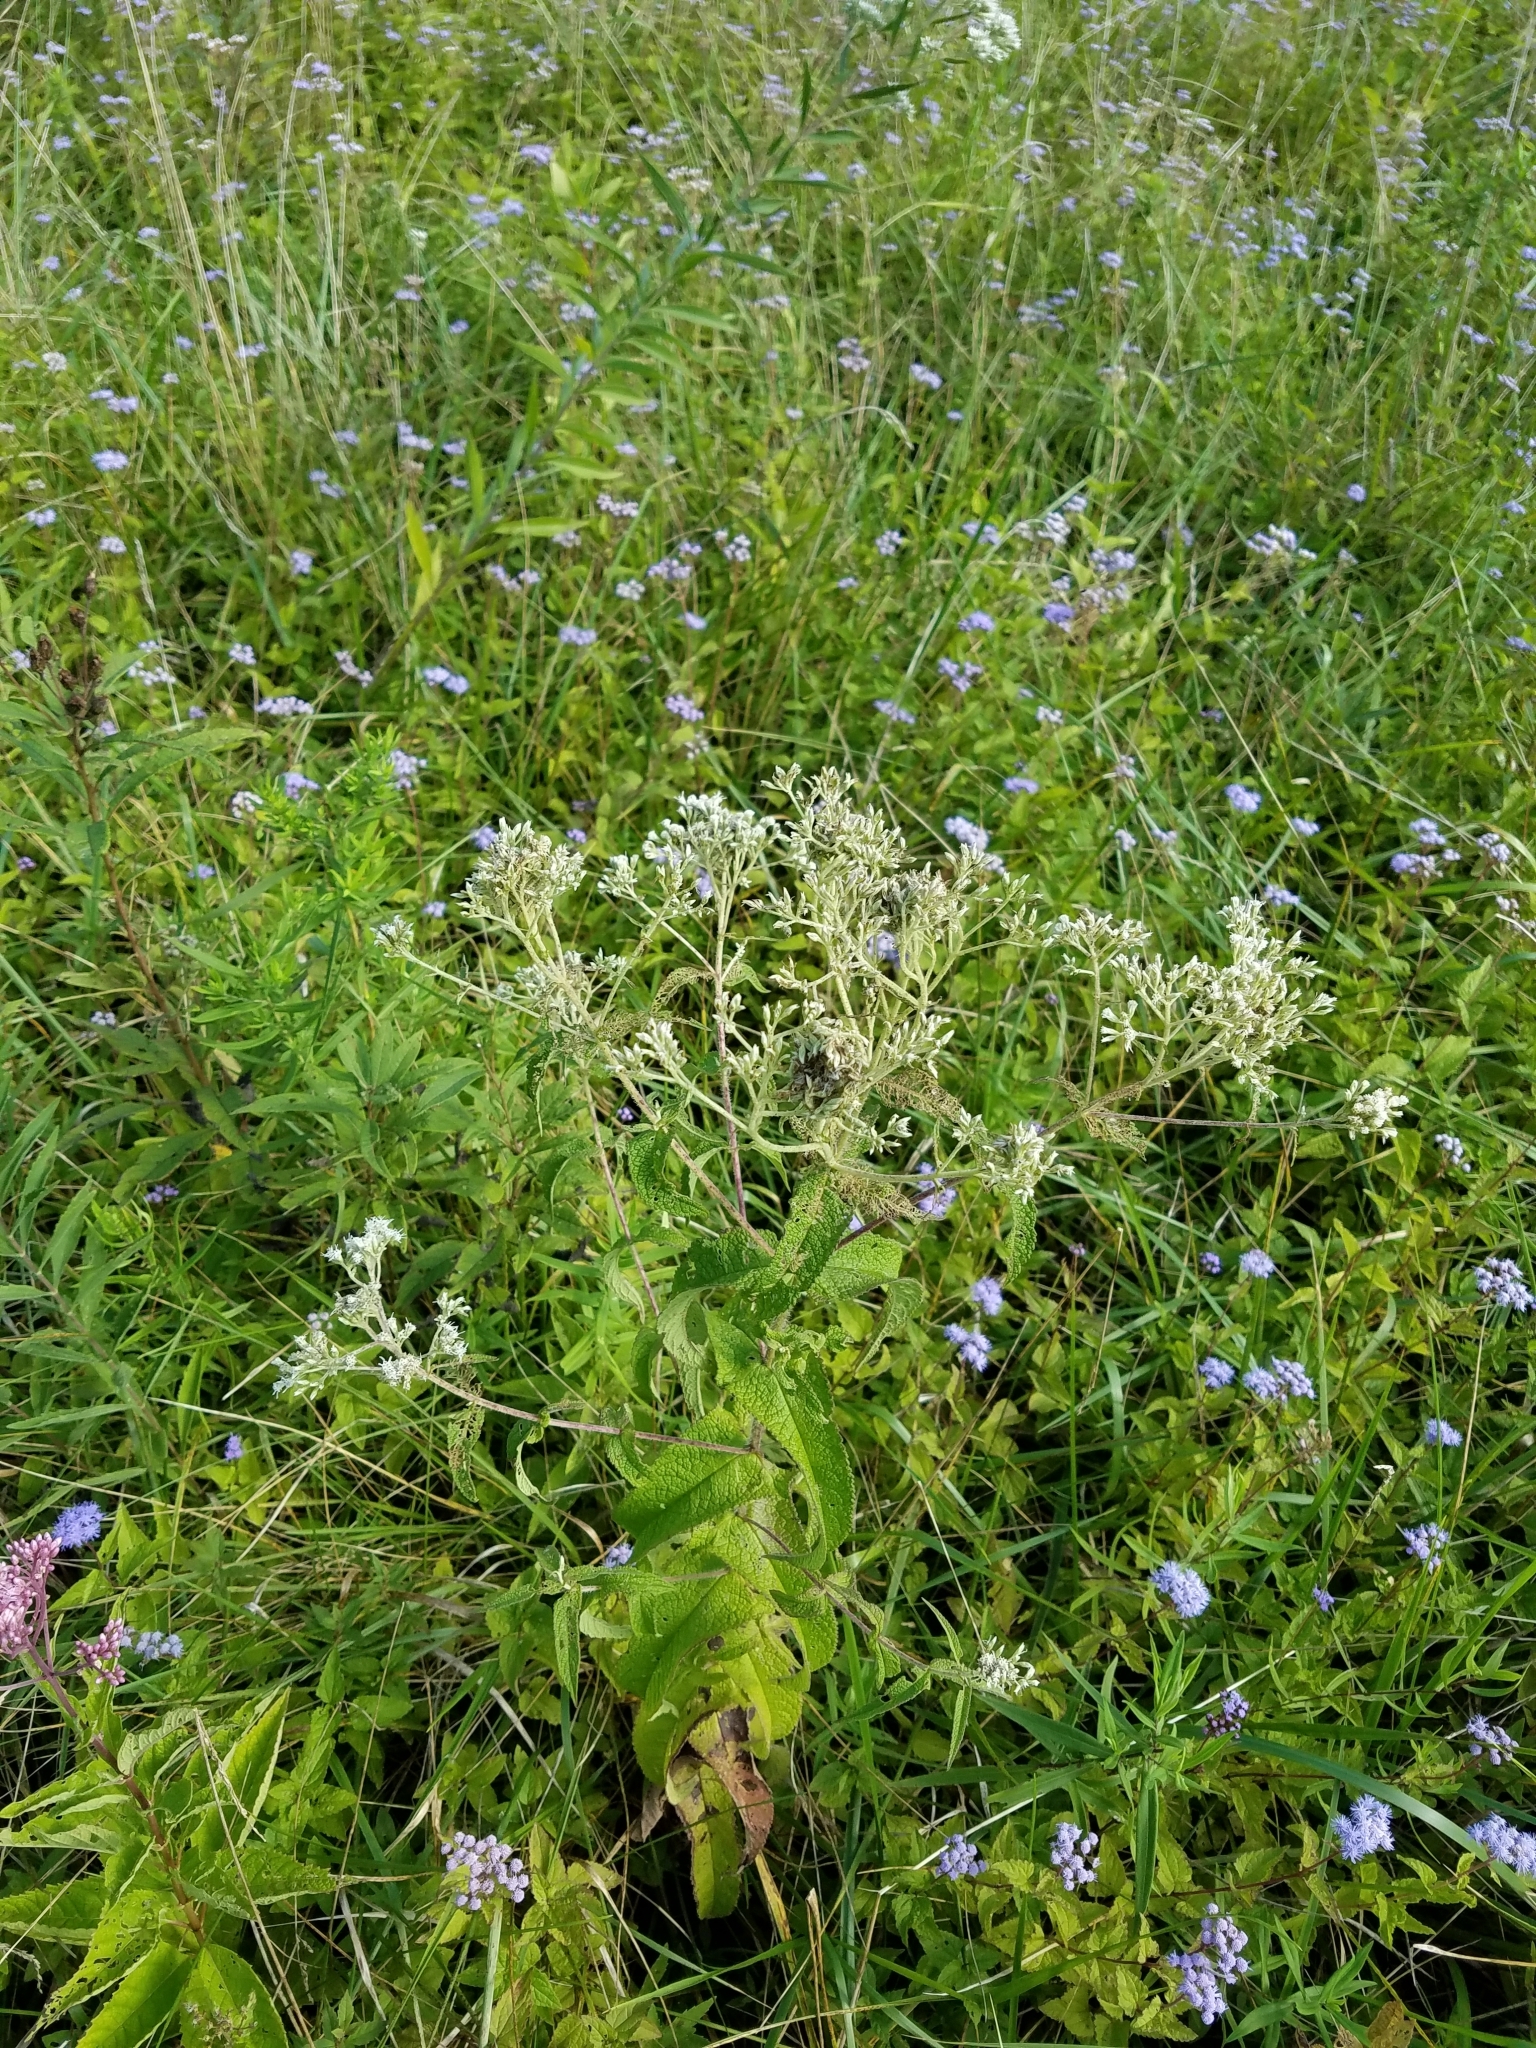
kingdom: Plantae
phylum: Tracheophyta
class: Magnoliopsida
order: Asterales
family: Asteraceae
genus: Eupatorium
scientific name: Eupatorium perfoliatum
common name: Boneset
